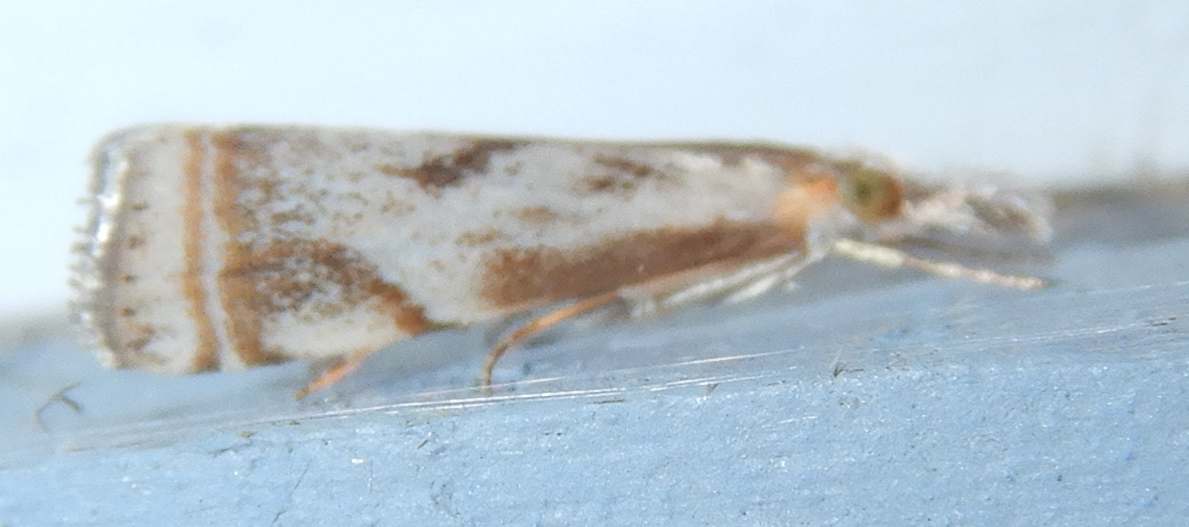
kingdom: Animalia
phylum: Arthropoda
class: Insecta
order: Lepidoptera
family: Crambidae
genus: Microcrambus
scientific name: Microcrambus elegans
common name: Elegant grass-veneer
